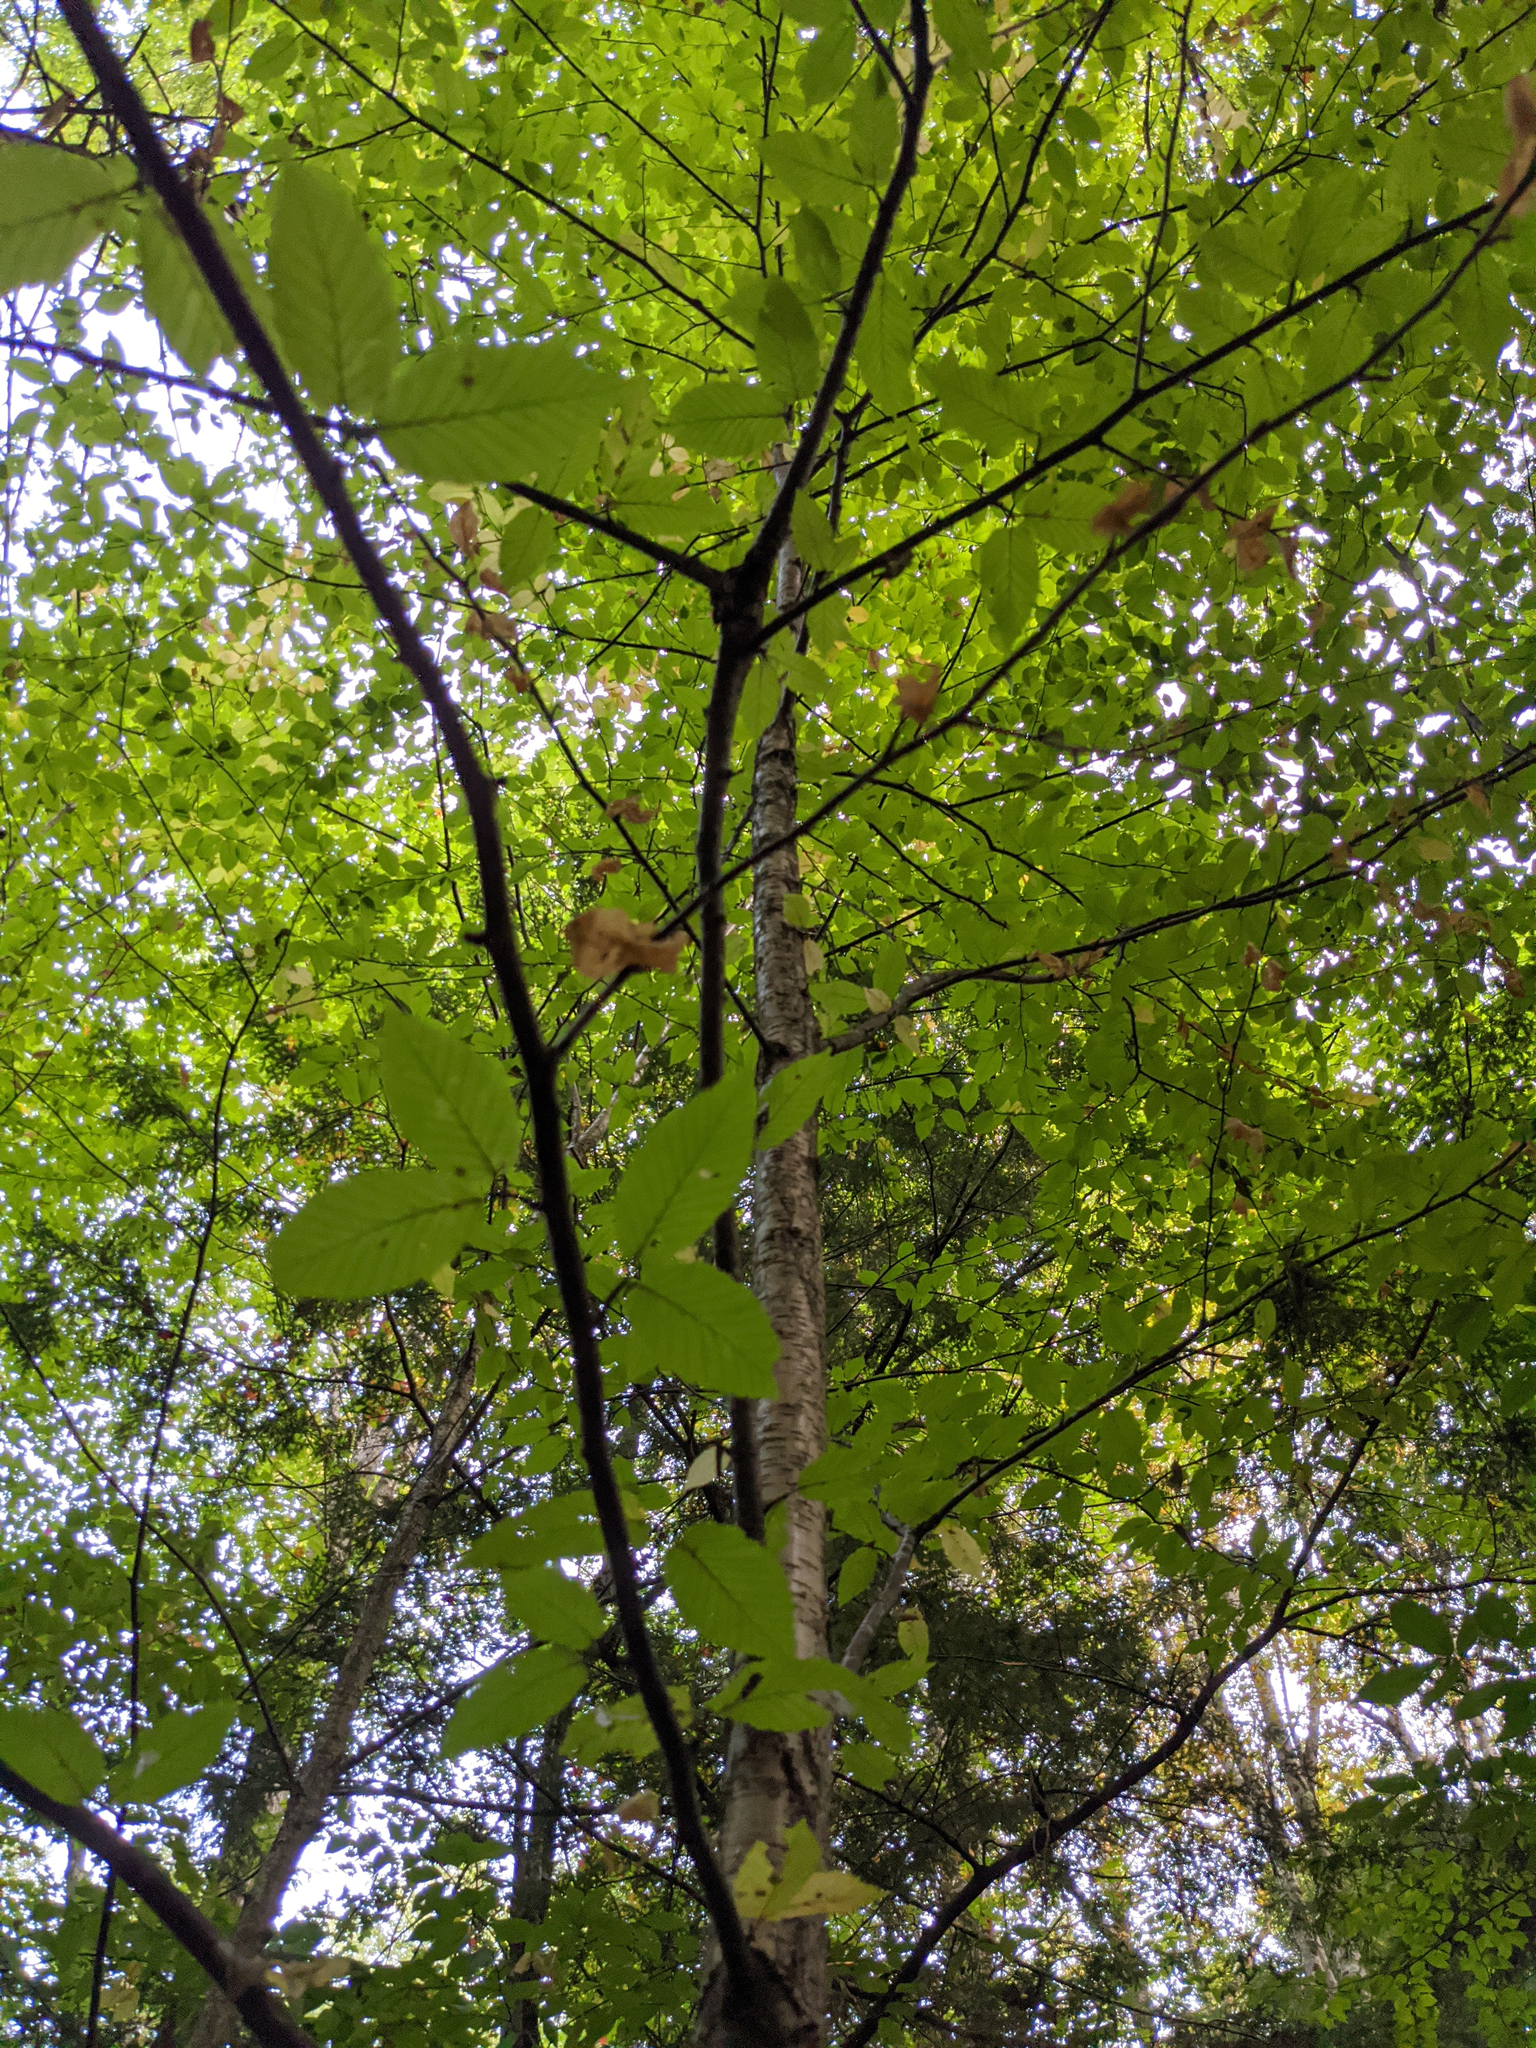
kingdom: Plantae
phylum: Tracheophyta
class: Magnoliopsida
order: Fagales
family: Betulaceae
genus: Betula
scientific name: Betula alleghaniensis
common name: Yellow birch
